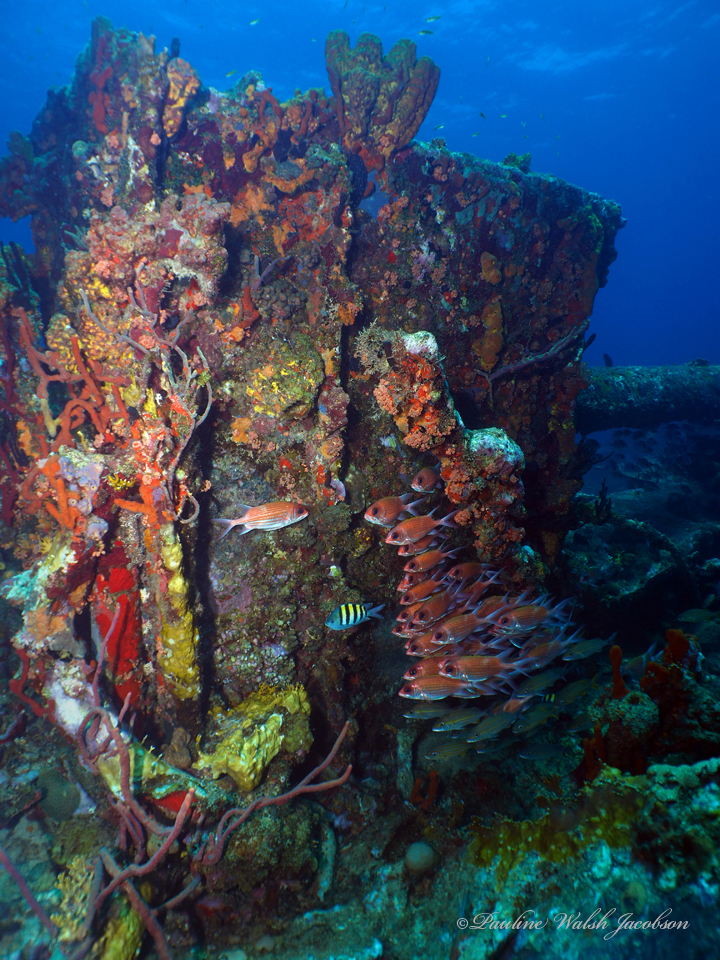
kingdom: Animalia
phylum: Chordata
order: Beryciformes
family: Holocentridae
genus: Holocentrus
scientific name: Holocentrus adscensionis
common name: Squirrelfish
